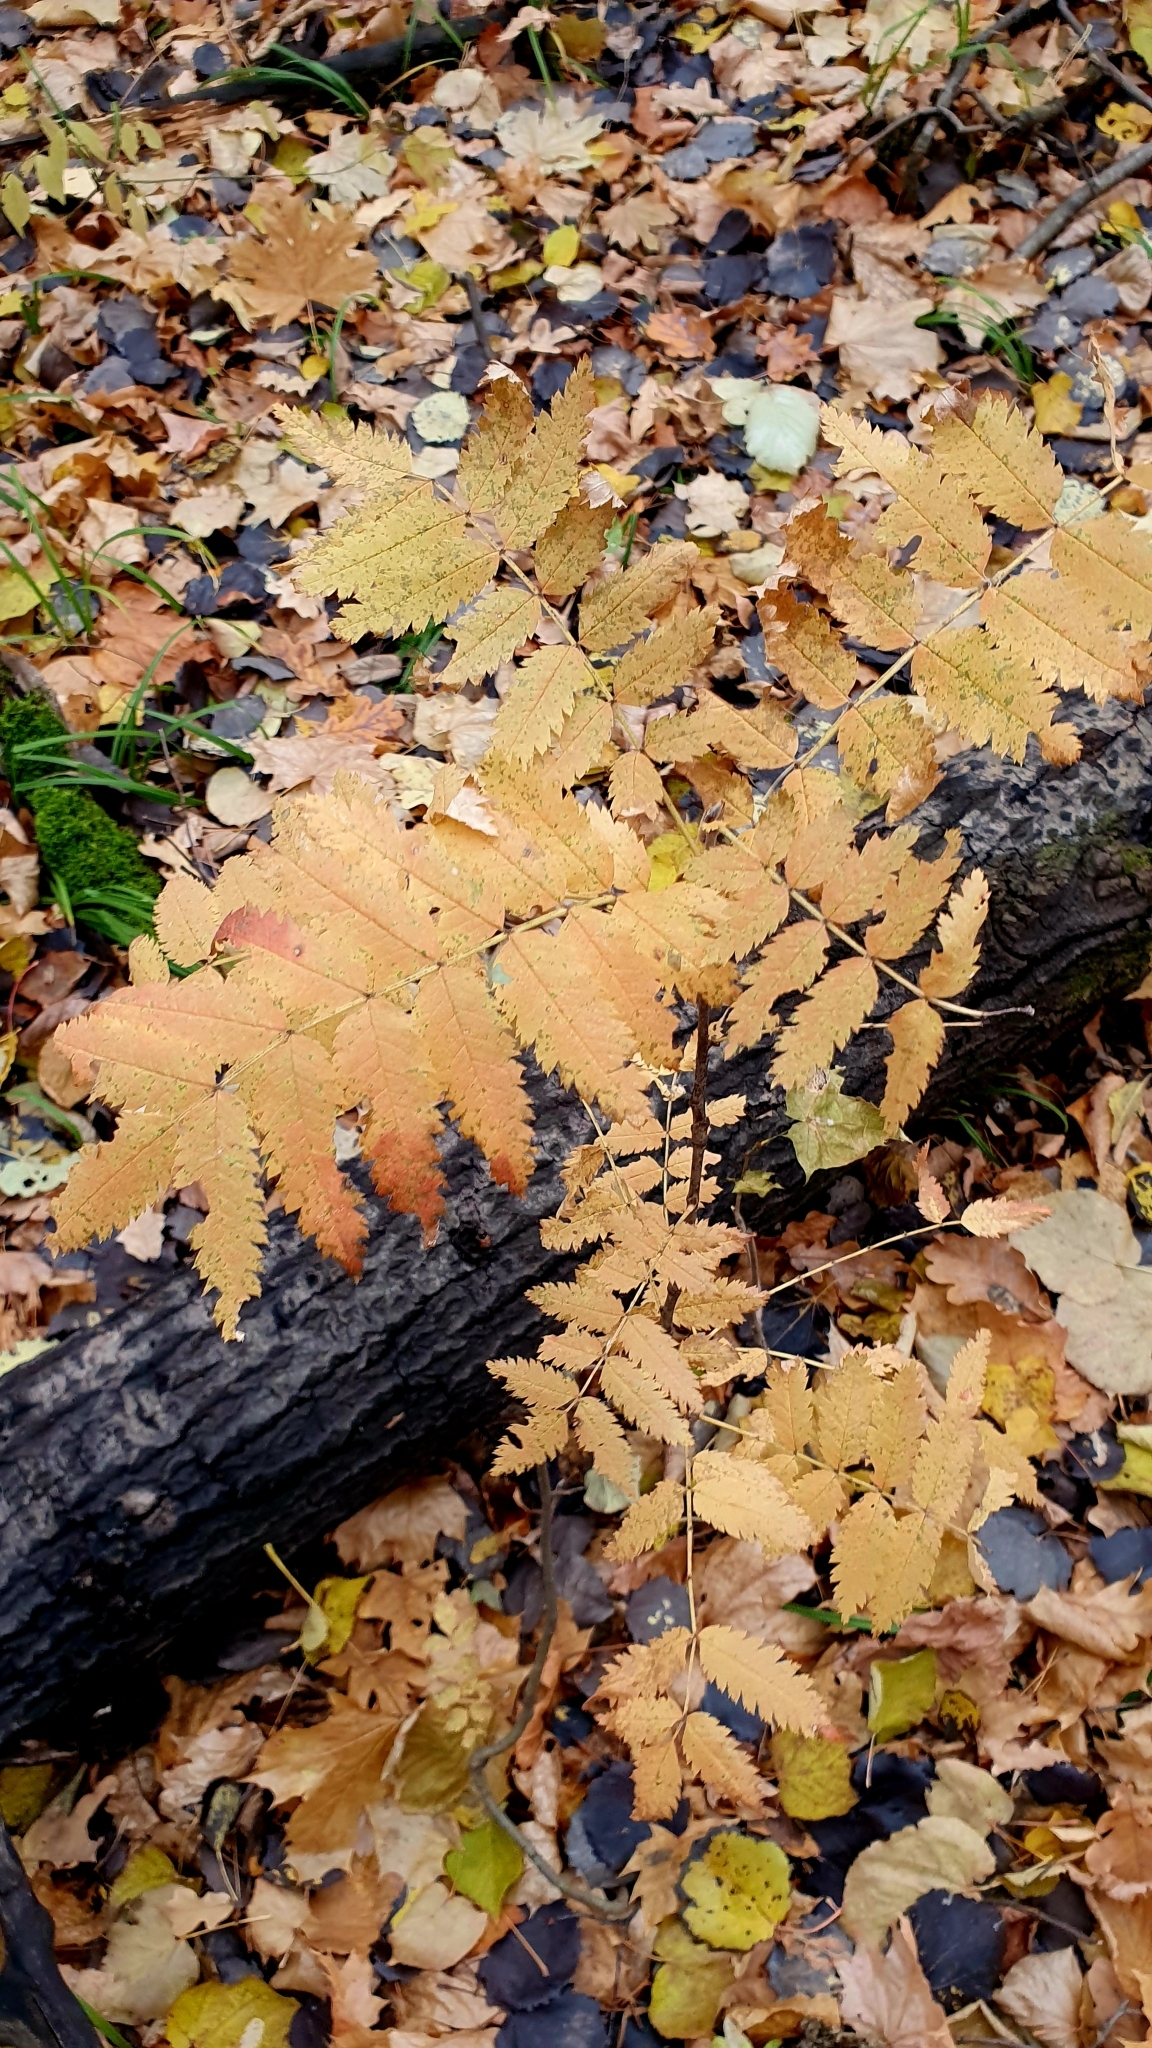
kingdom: Plantae
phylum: Tracheophyta
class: Magnoliopsida
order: Rosales
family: Rosaceae
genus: Sorbus
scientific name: Sorbus aucuparia
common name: Rowan
